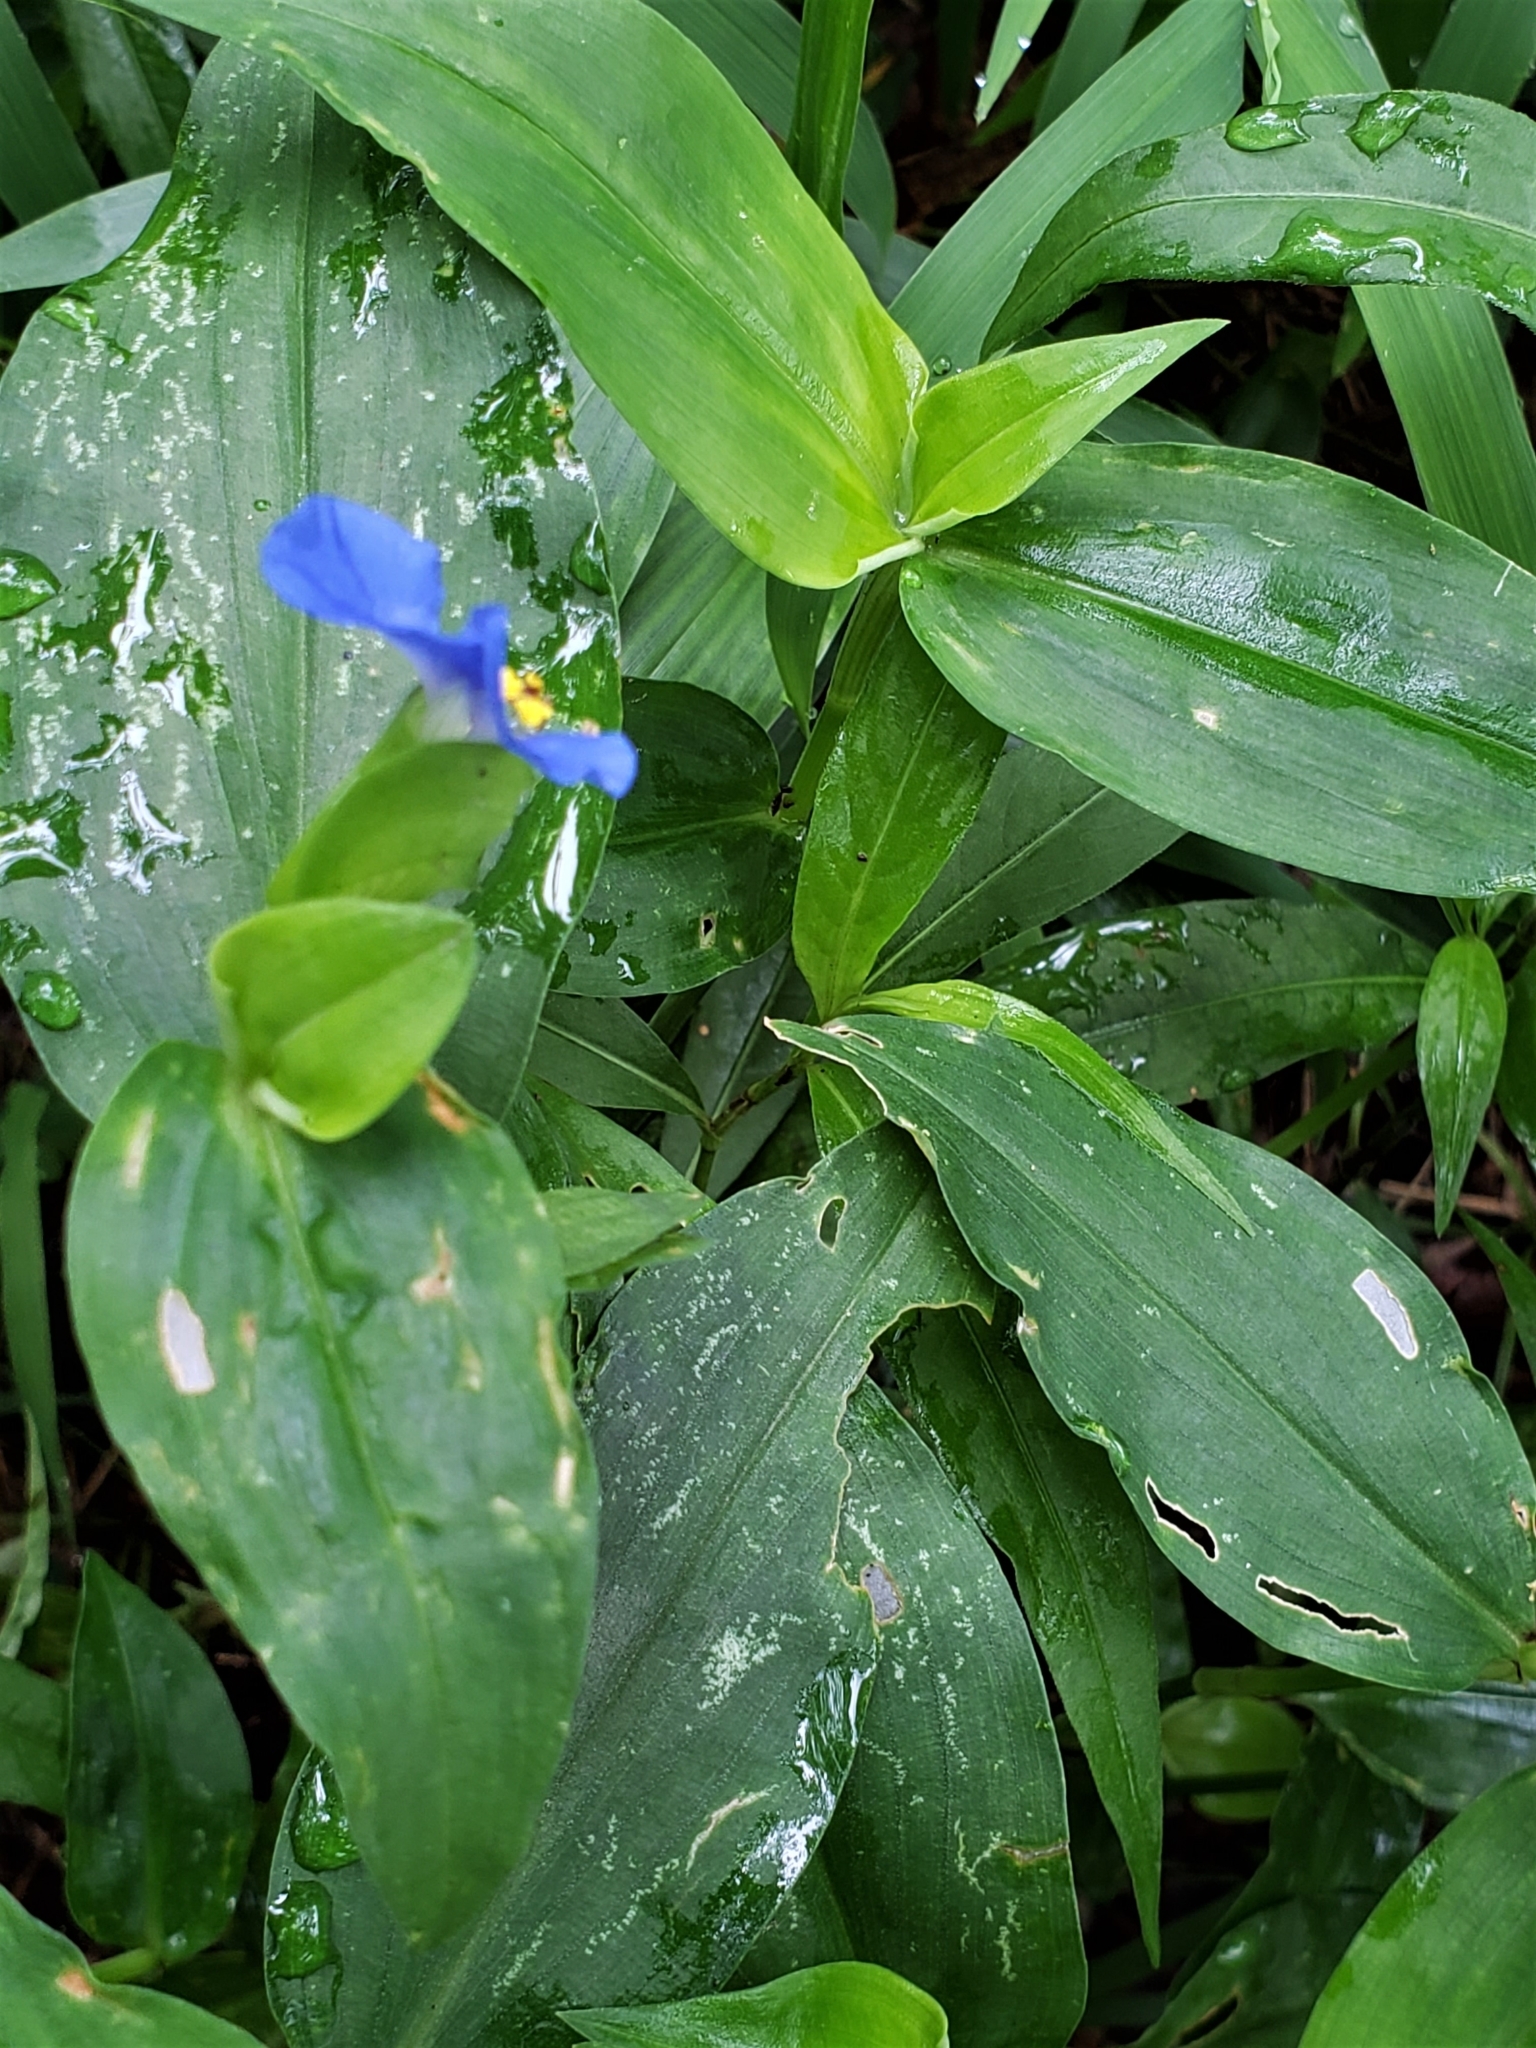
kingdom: Plantae
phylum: Tracheophyta
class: Liliopsida
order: Commelinales
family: Commelinaceae
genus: Commelina
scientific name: Commelina communis
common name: Asiatic dayflower
